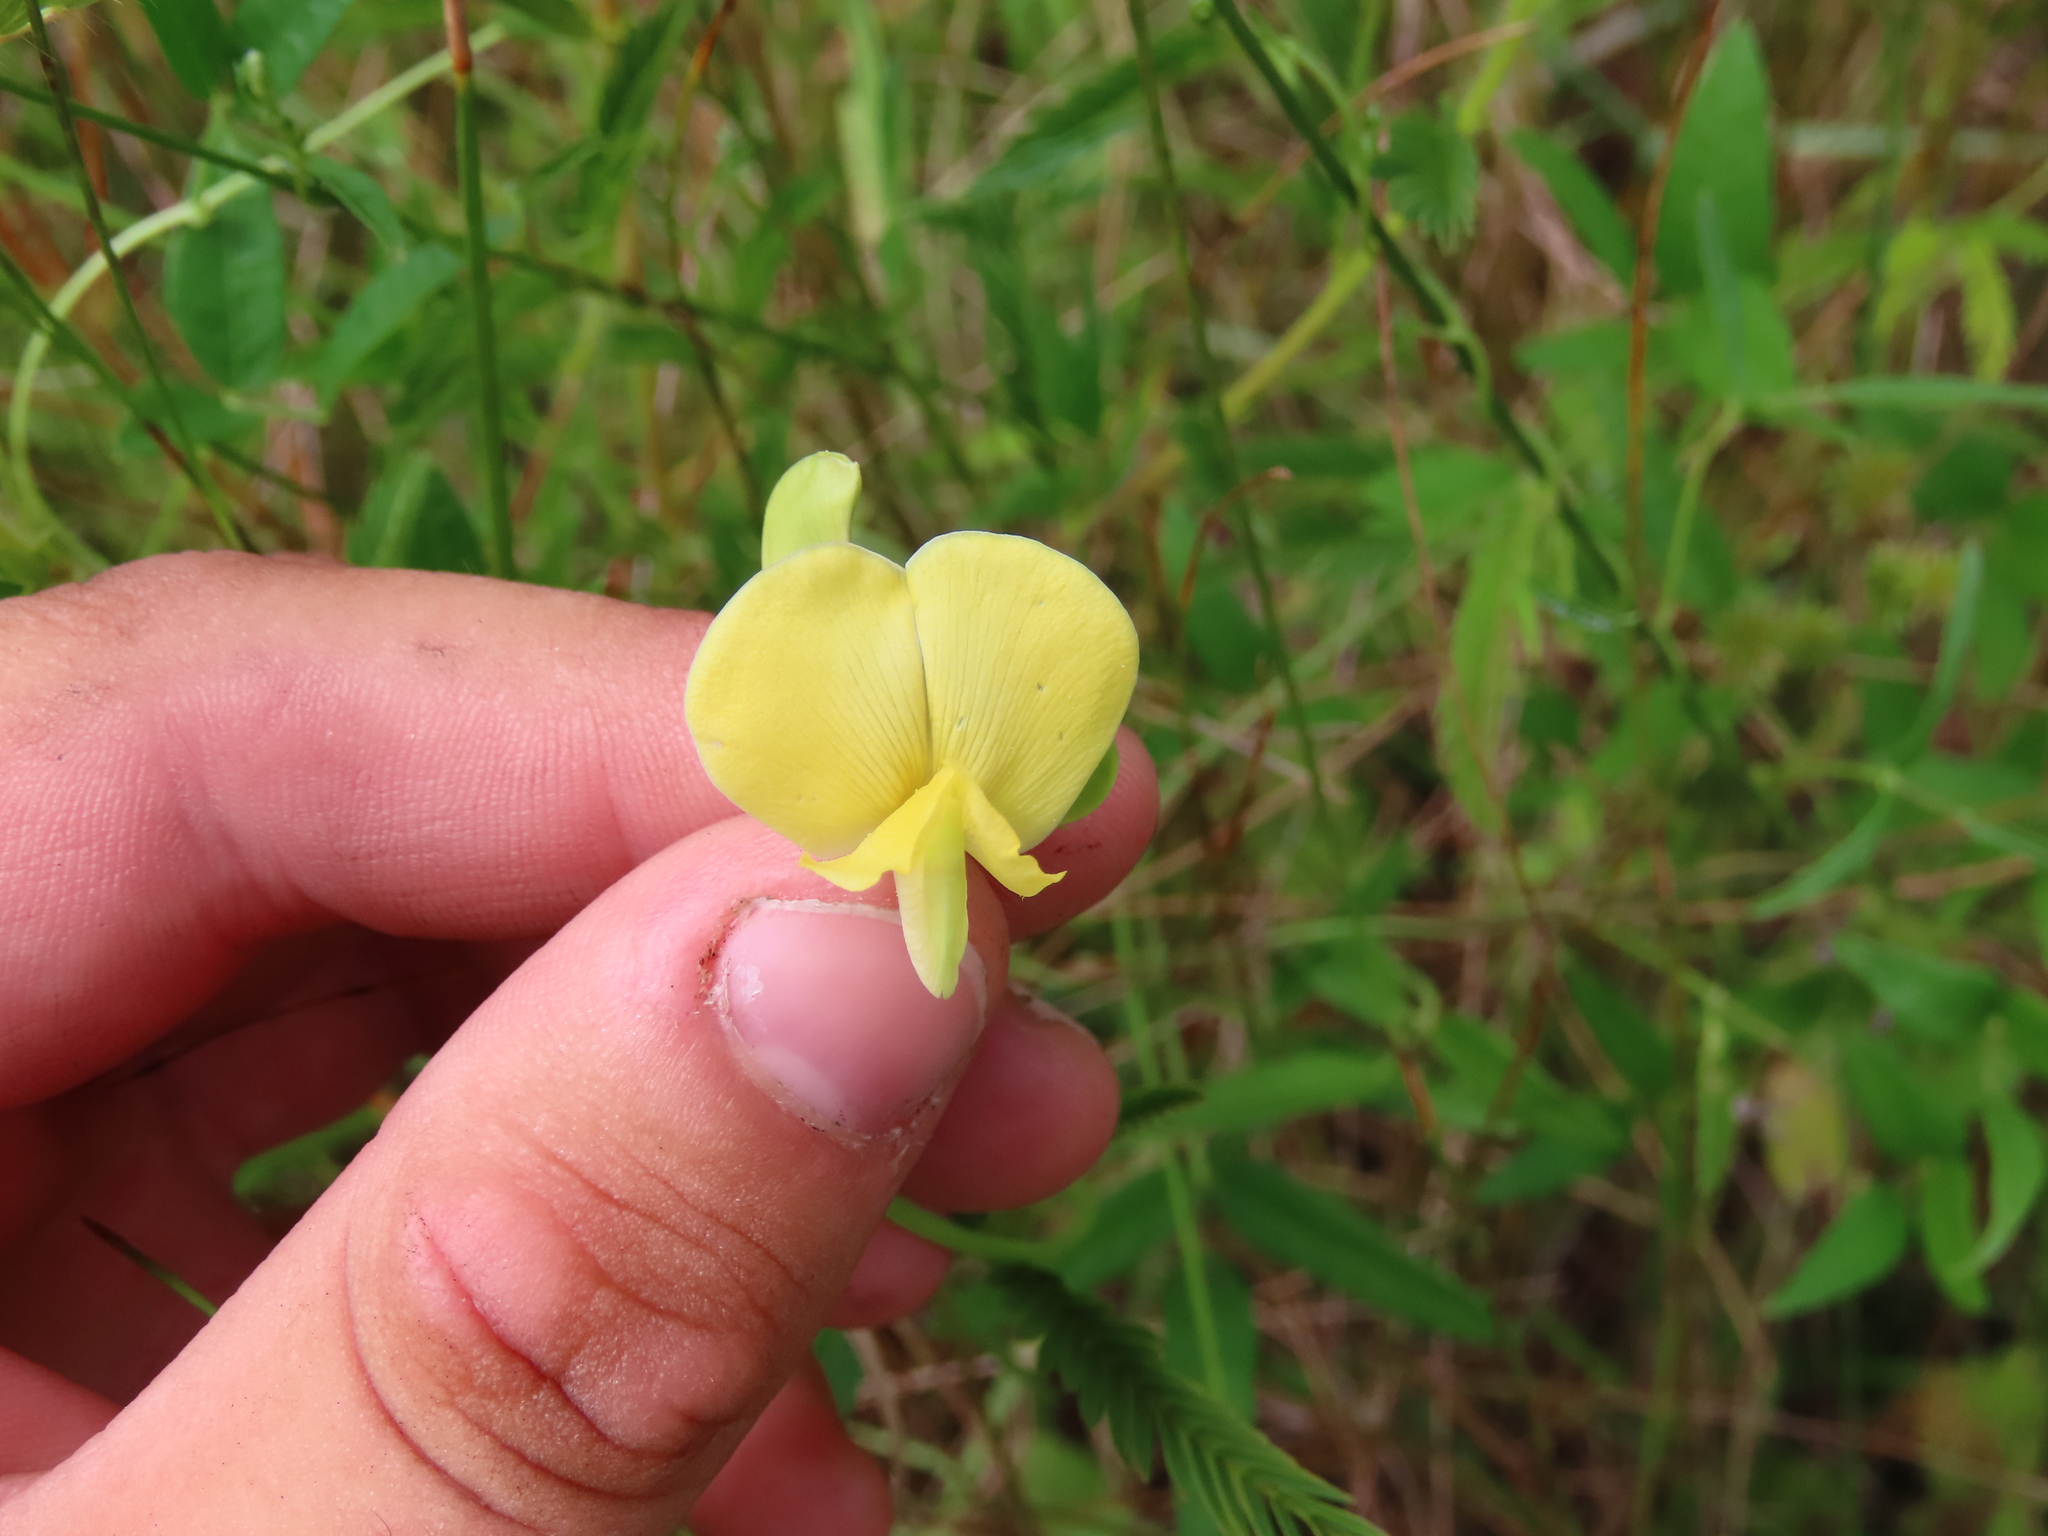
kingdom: Plantae
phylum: Tracheophyta
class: Magnoliopsida
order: Fabales
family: Fabaceae
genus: Vigna
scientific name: Vigna luteola
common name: Hairypod cowpea
